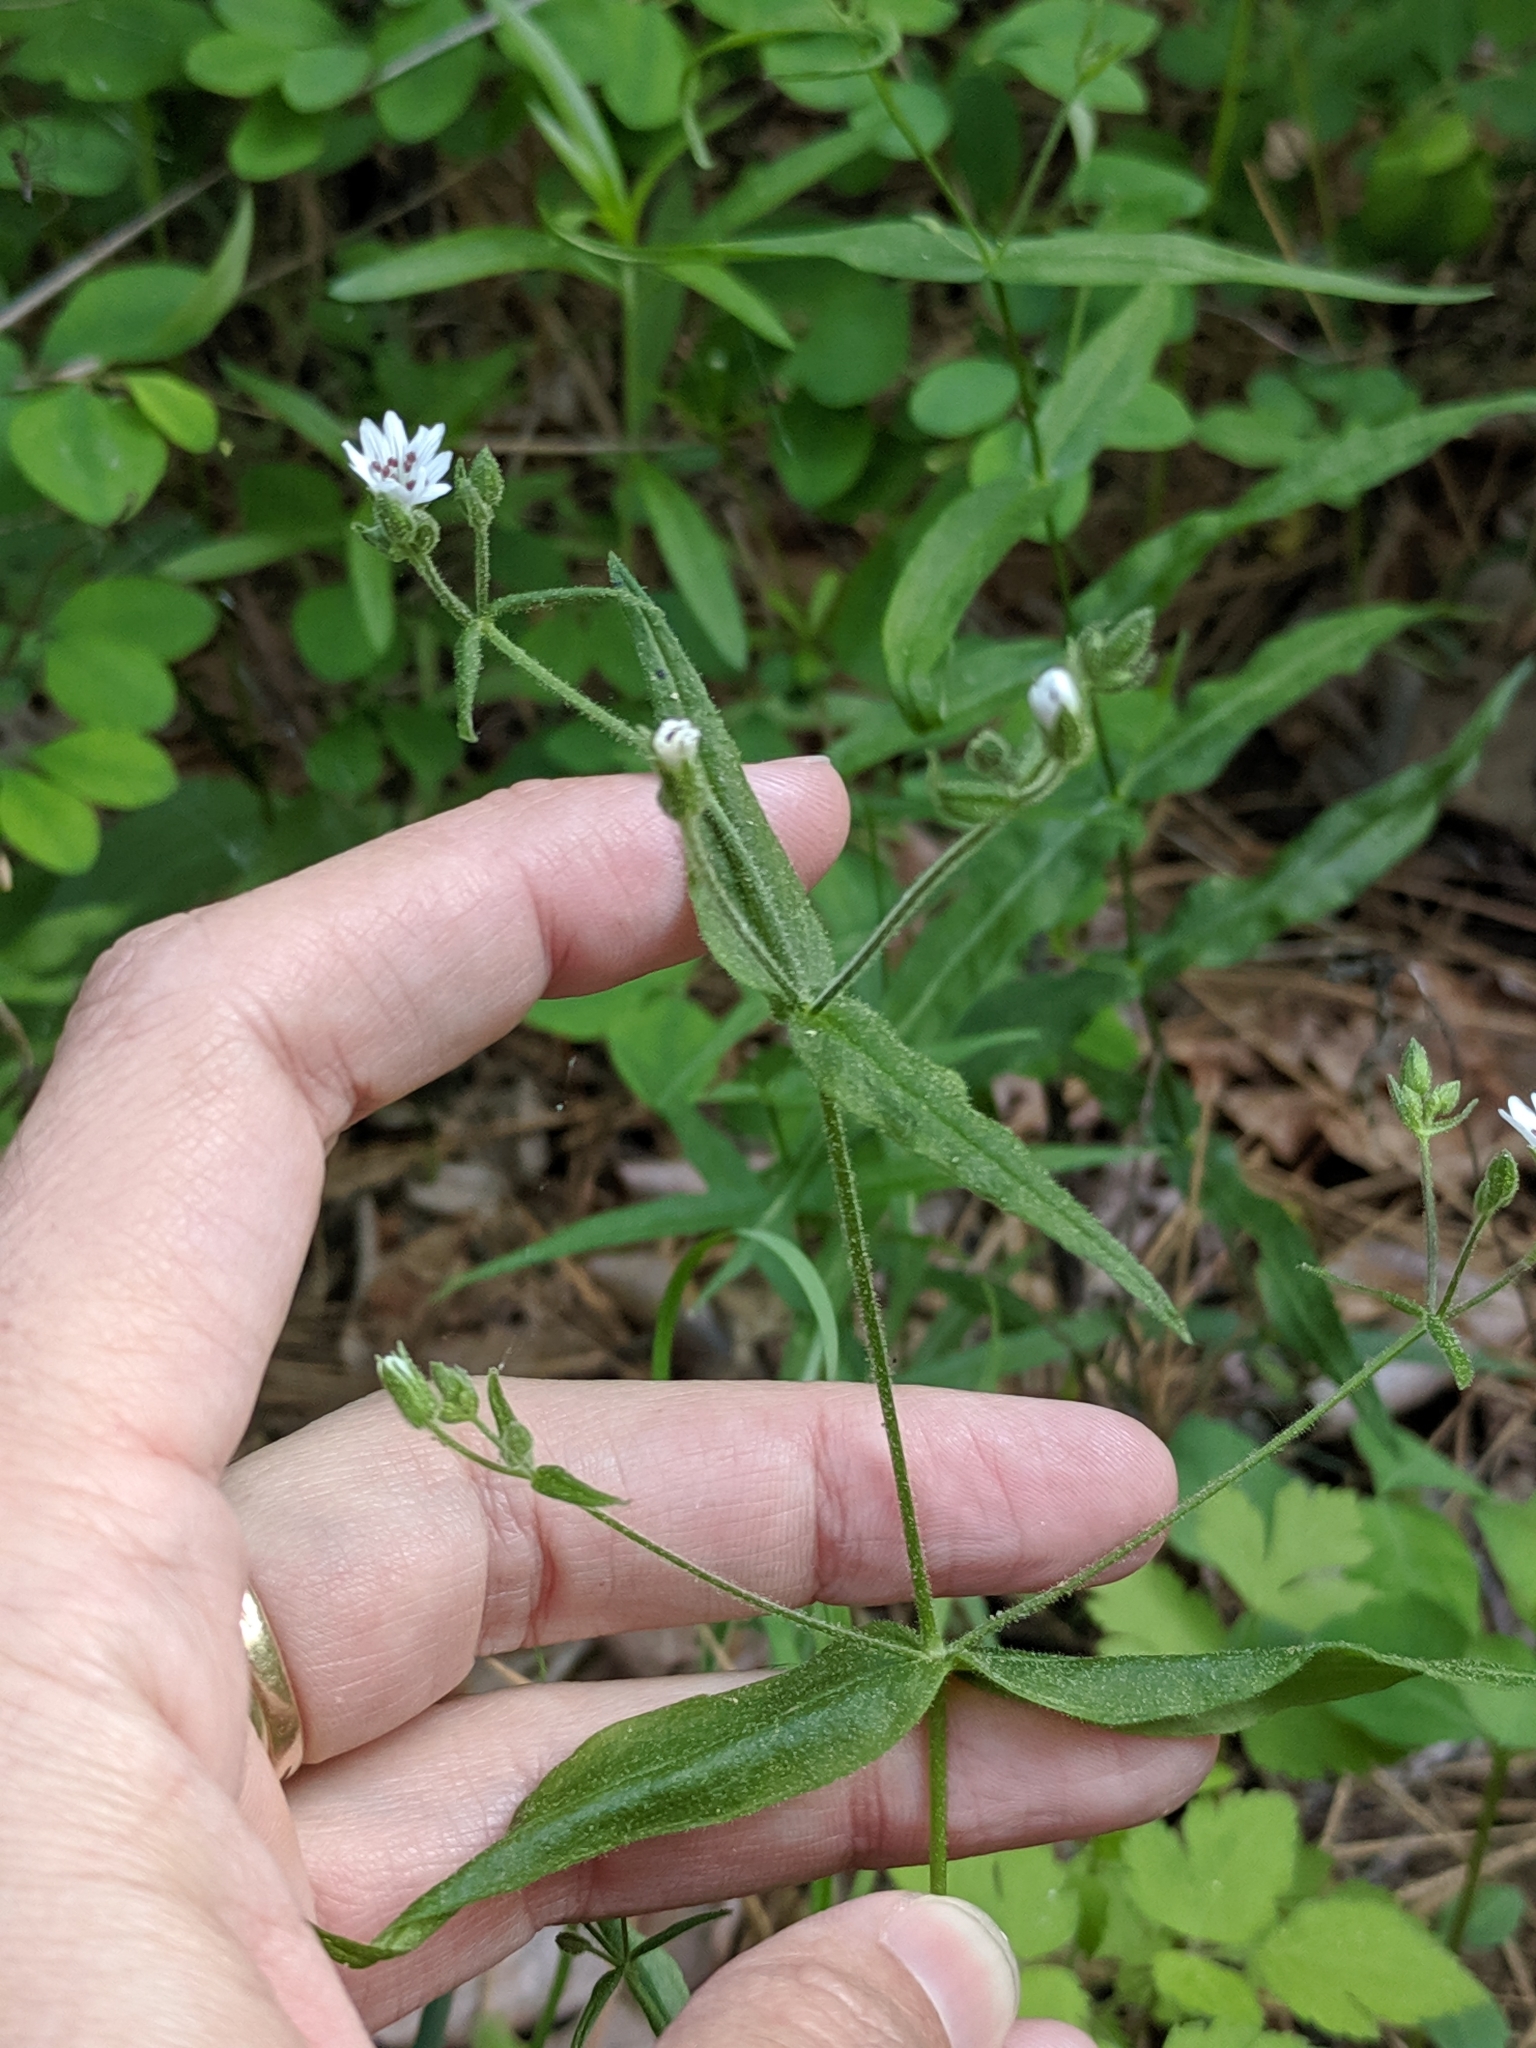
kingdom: Plantae
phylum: Tracheophyta
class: Magnoliopsida
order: Caryophyllales
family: Caryophyllaceae
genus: Schizotechium
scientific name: Schizotechium jamesianum
